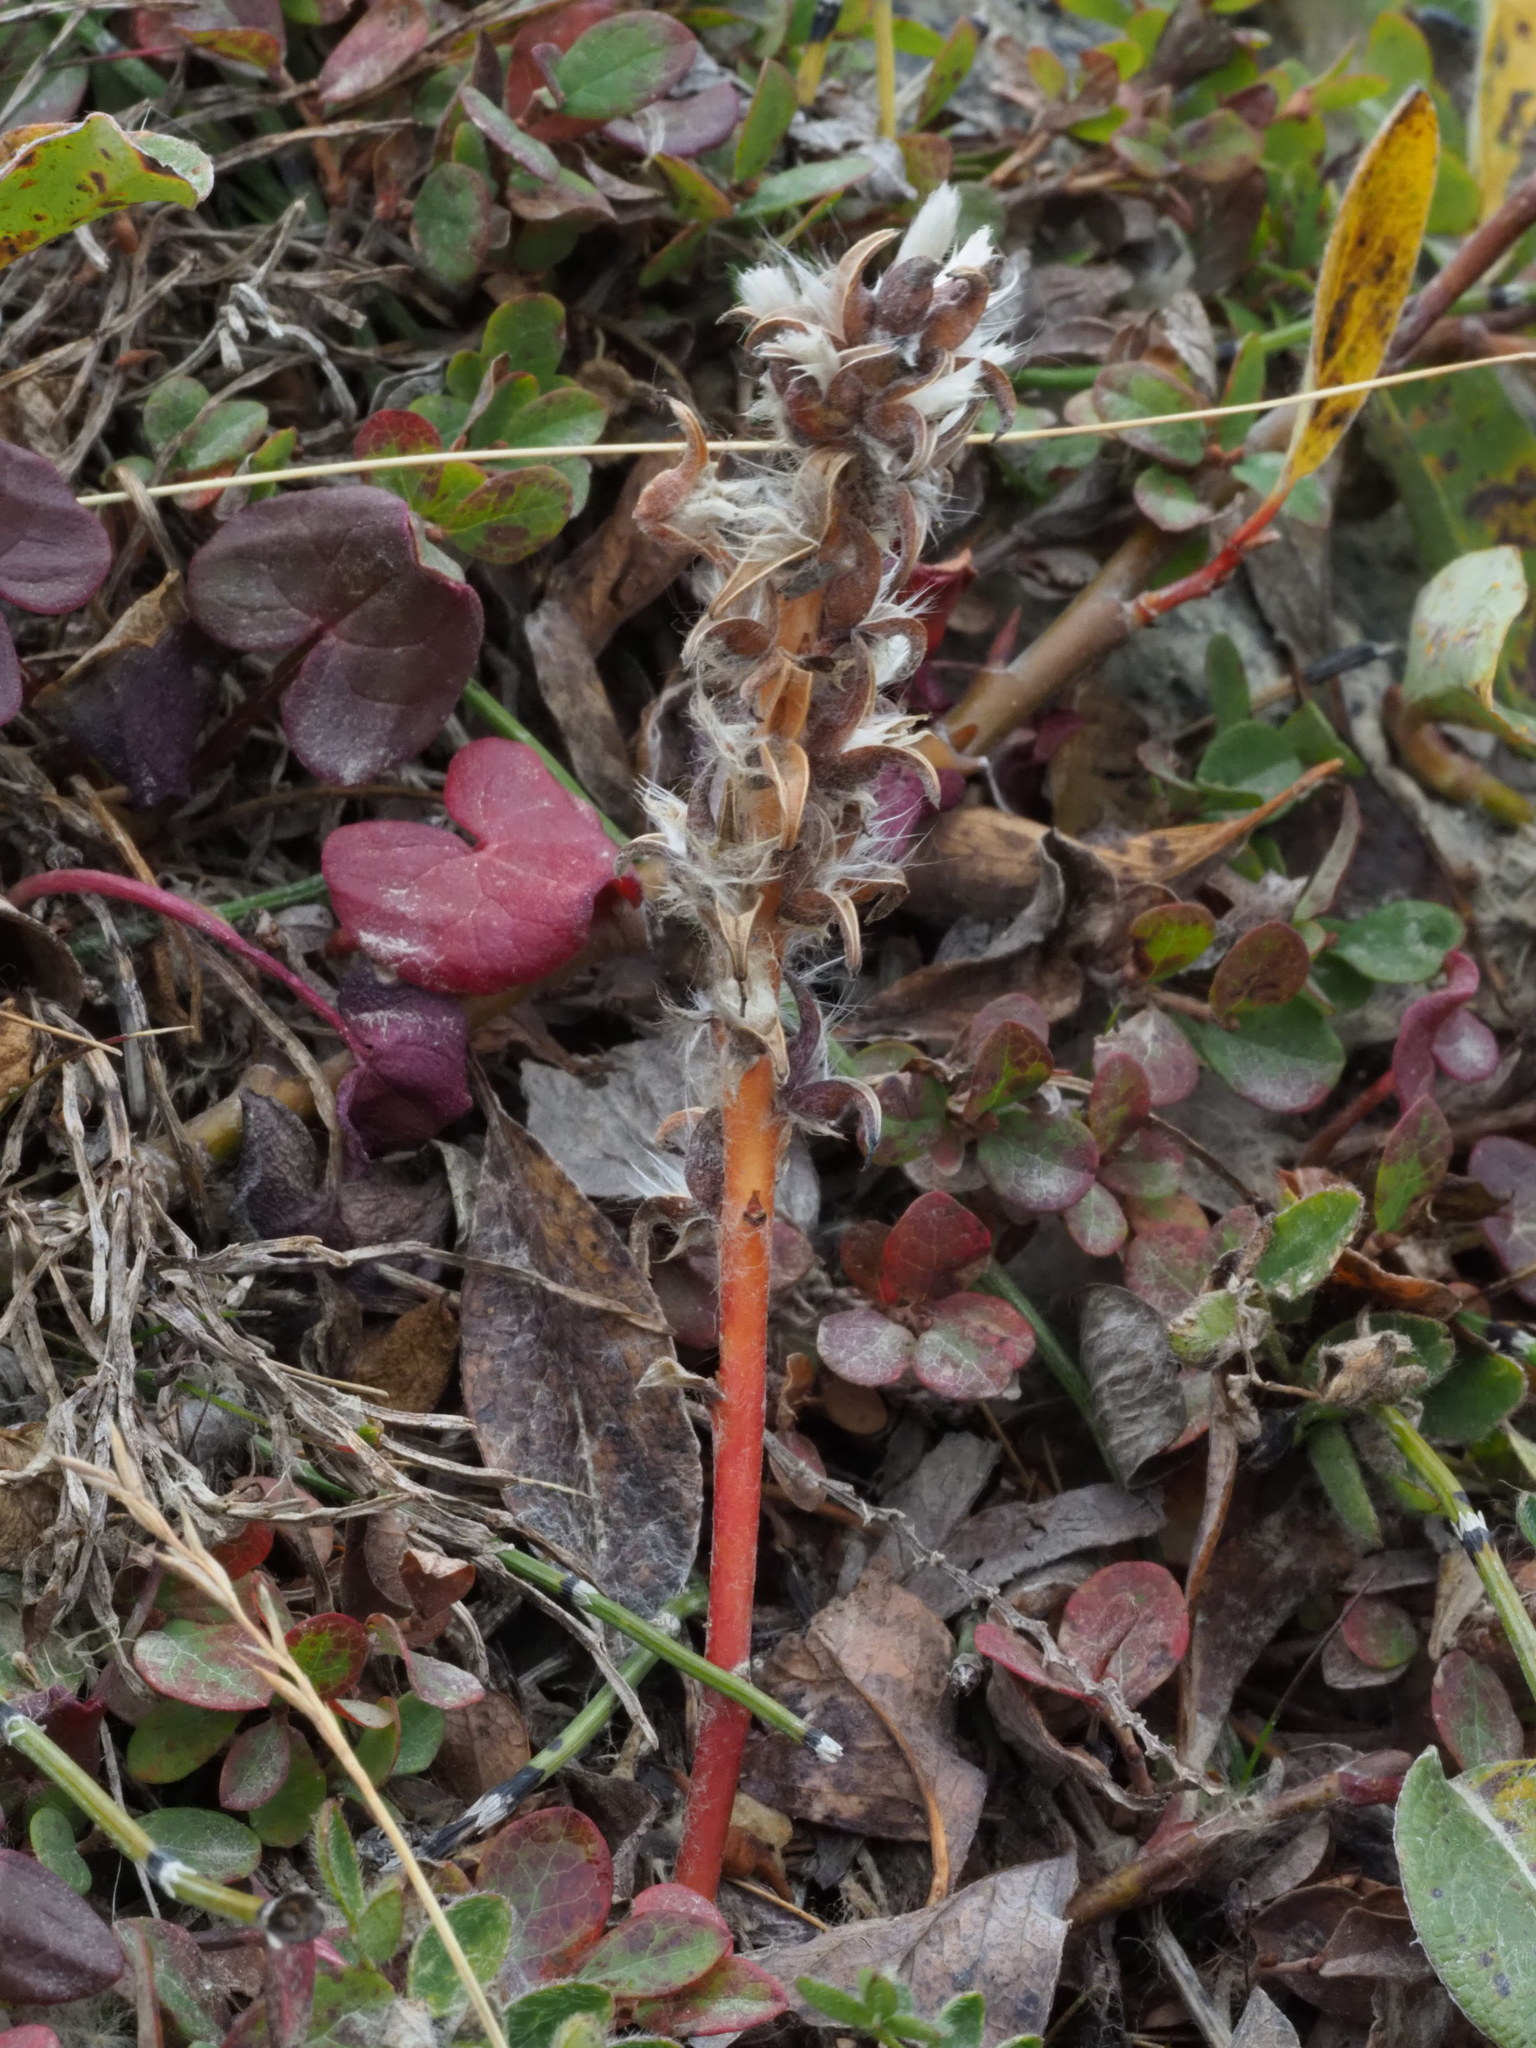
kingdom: Plantae
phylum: Tracheophyta
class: Magnoliopsida
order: Malpighiales
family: Salicaceae
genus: Salix
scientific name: Salix arctica
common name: Arctic willow
